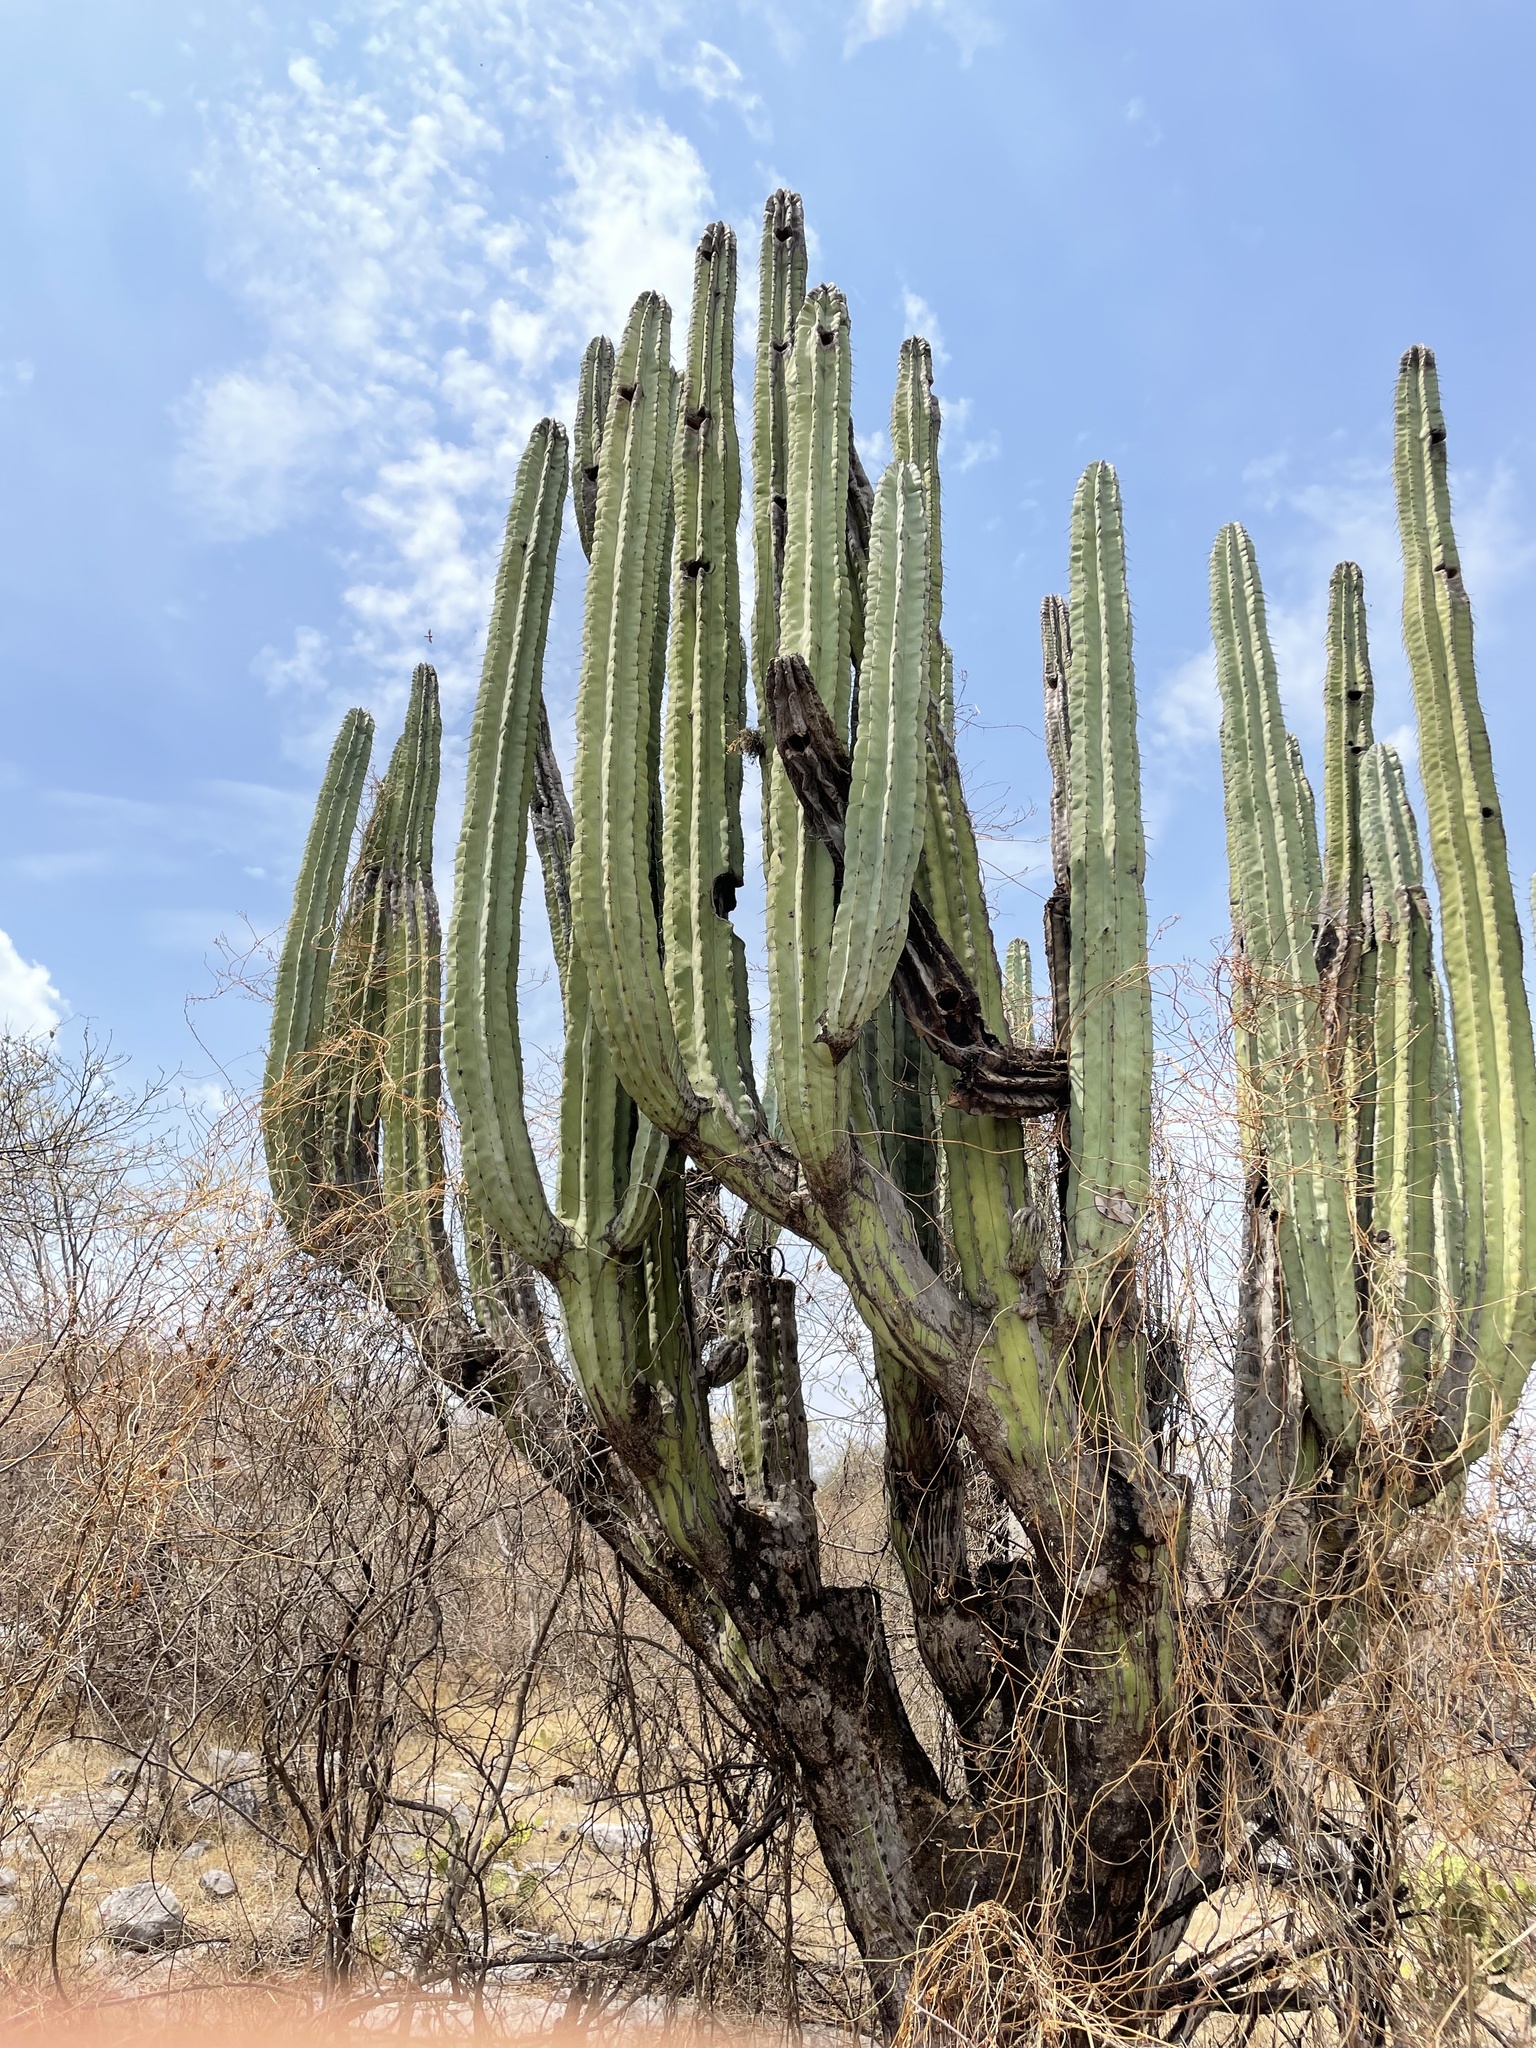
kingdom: Plantae
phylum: Tracheophyta
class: Magnoliopsida
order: Caryophyllales
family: Cactaceae
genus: Pachycereus
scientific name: Pachycereus weberi
